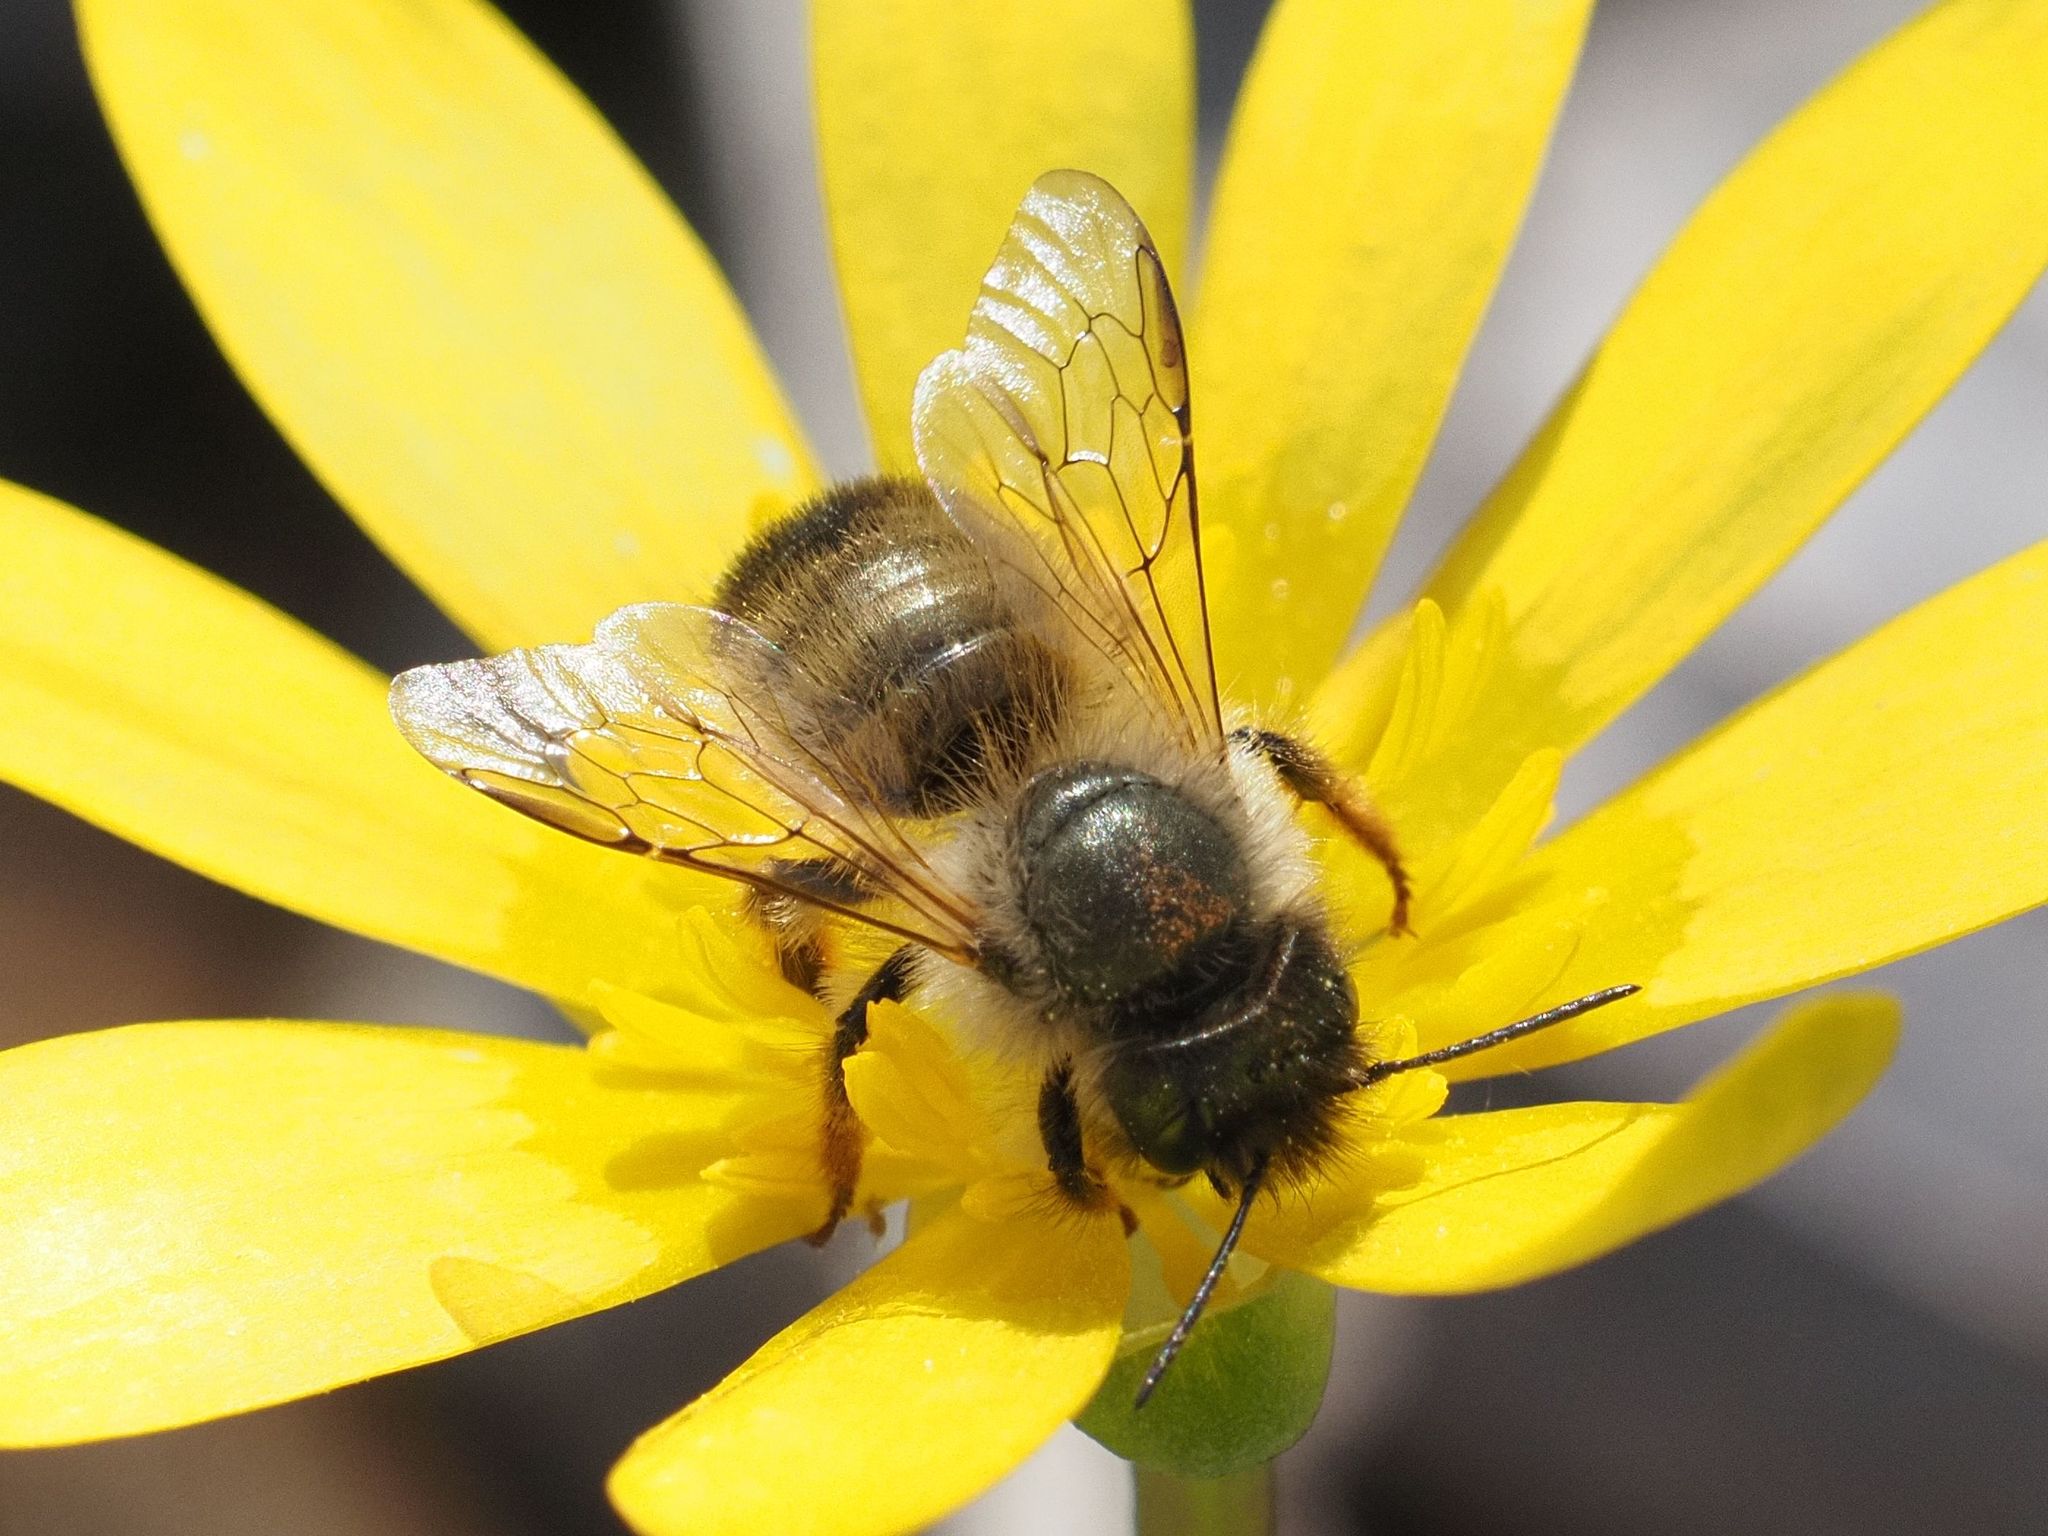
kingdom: Animalia
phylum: Arthropoda
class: Insecta
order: Hymenoptera
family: Megachilidae
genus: Osmia
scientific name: Osmia bicornis
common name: Red mason bee
